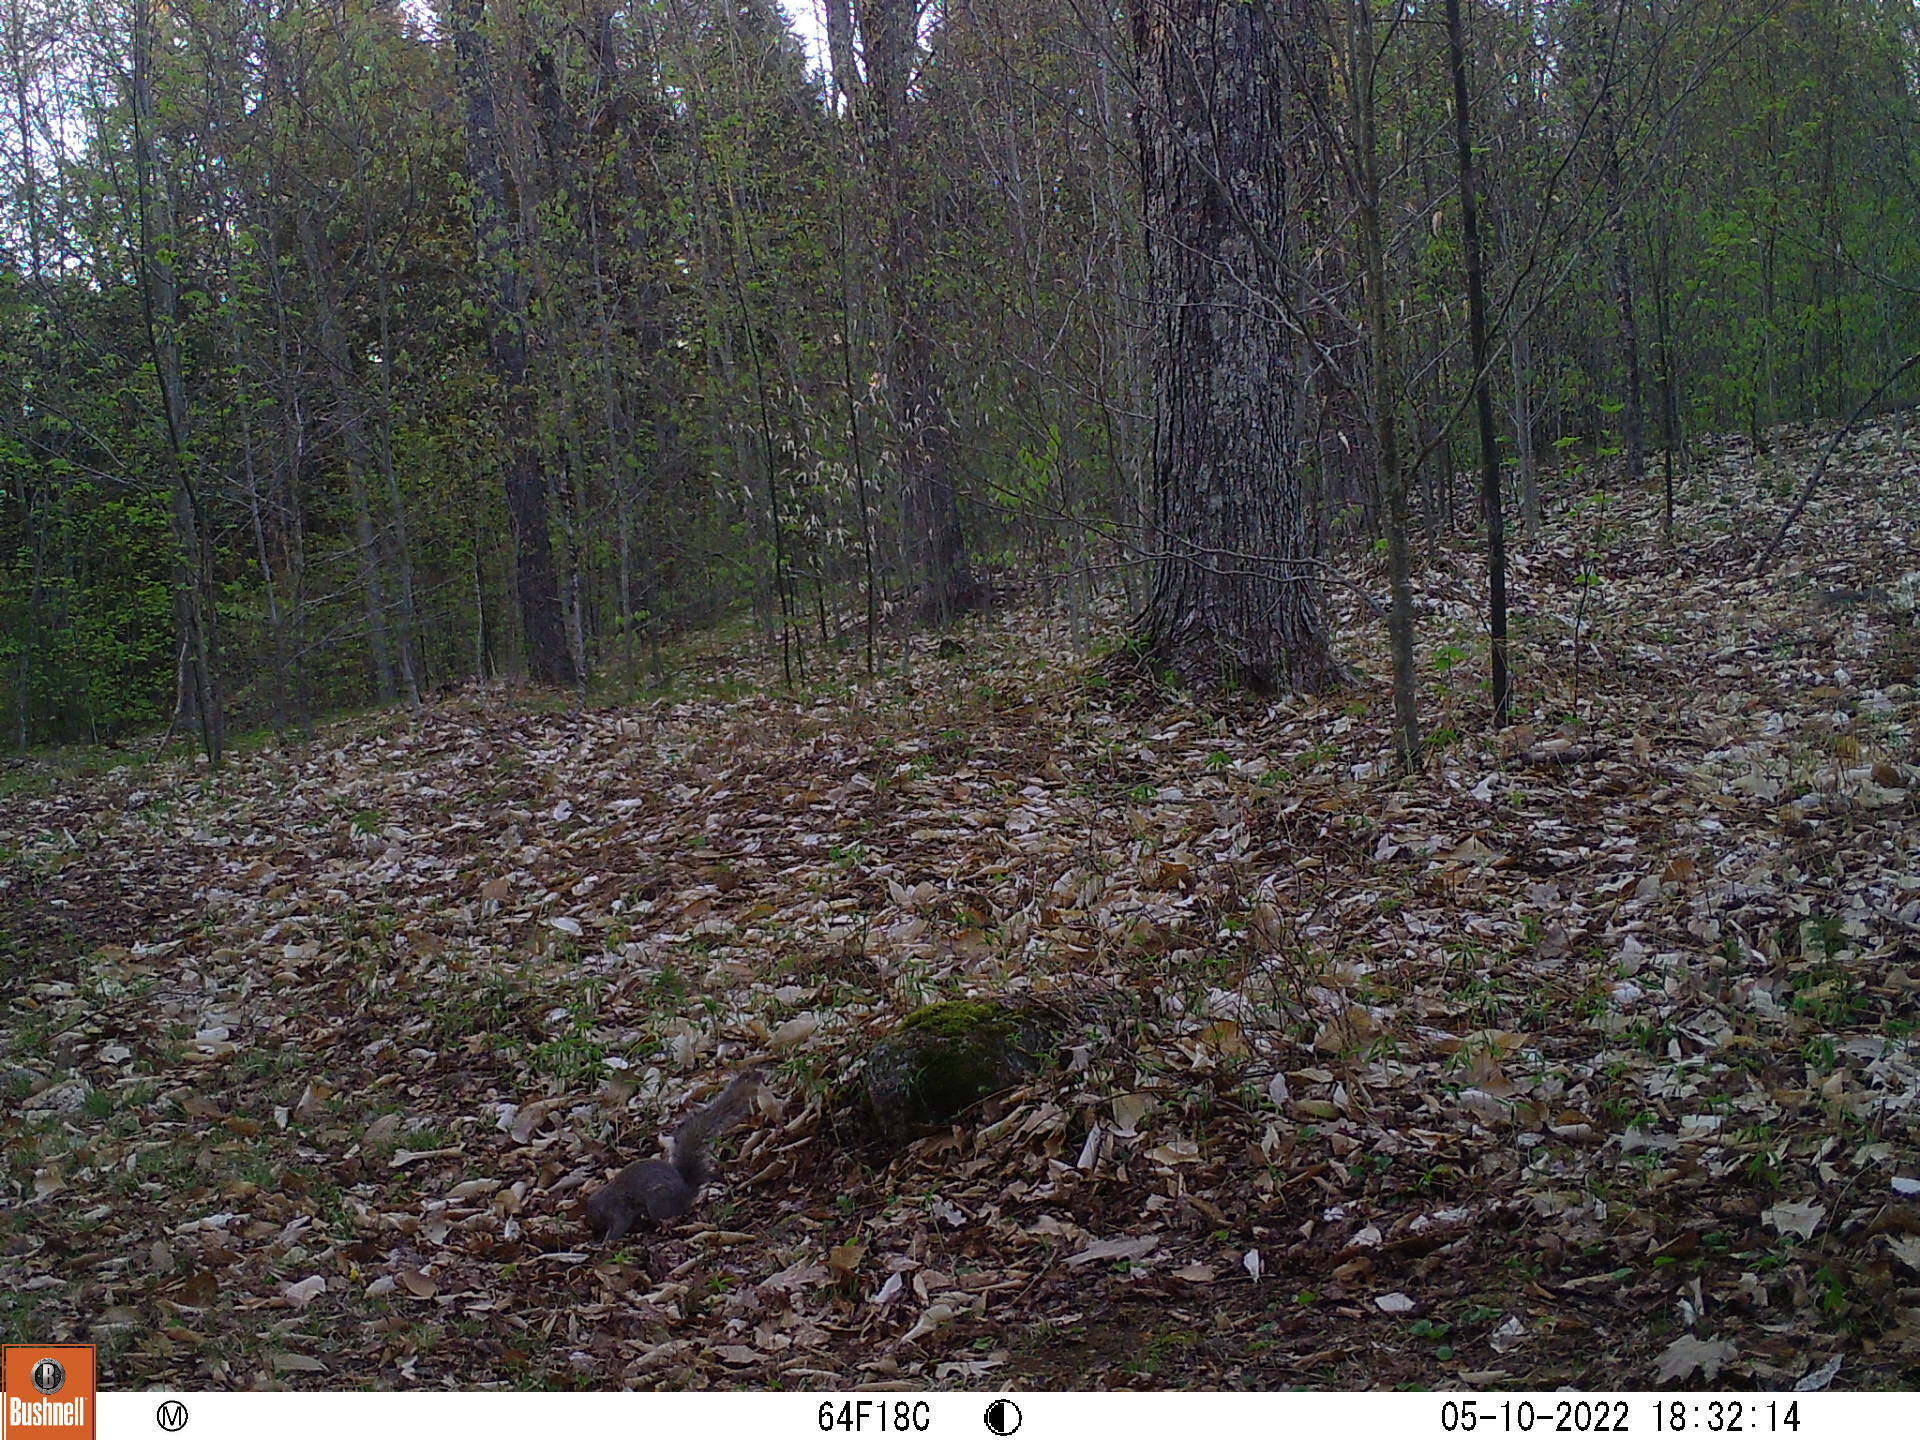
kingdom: Animalia
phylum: Chordata
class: Mammalia
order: Rodentia
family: Sciuridae
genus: Sciurus
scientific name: Sciurus carolinensis
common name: Eastern gray squirrel
